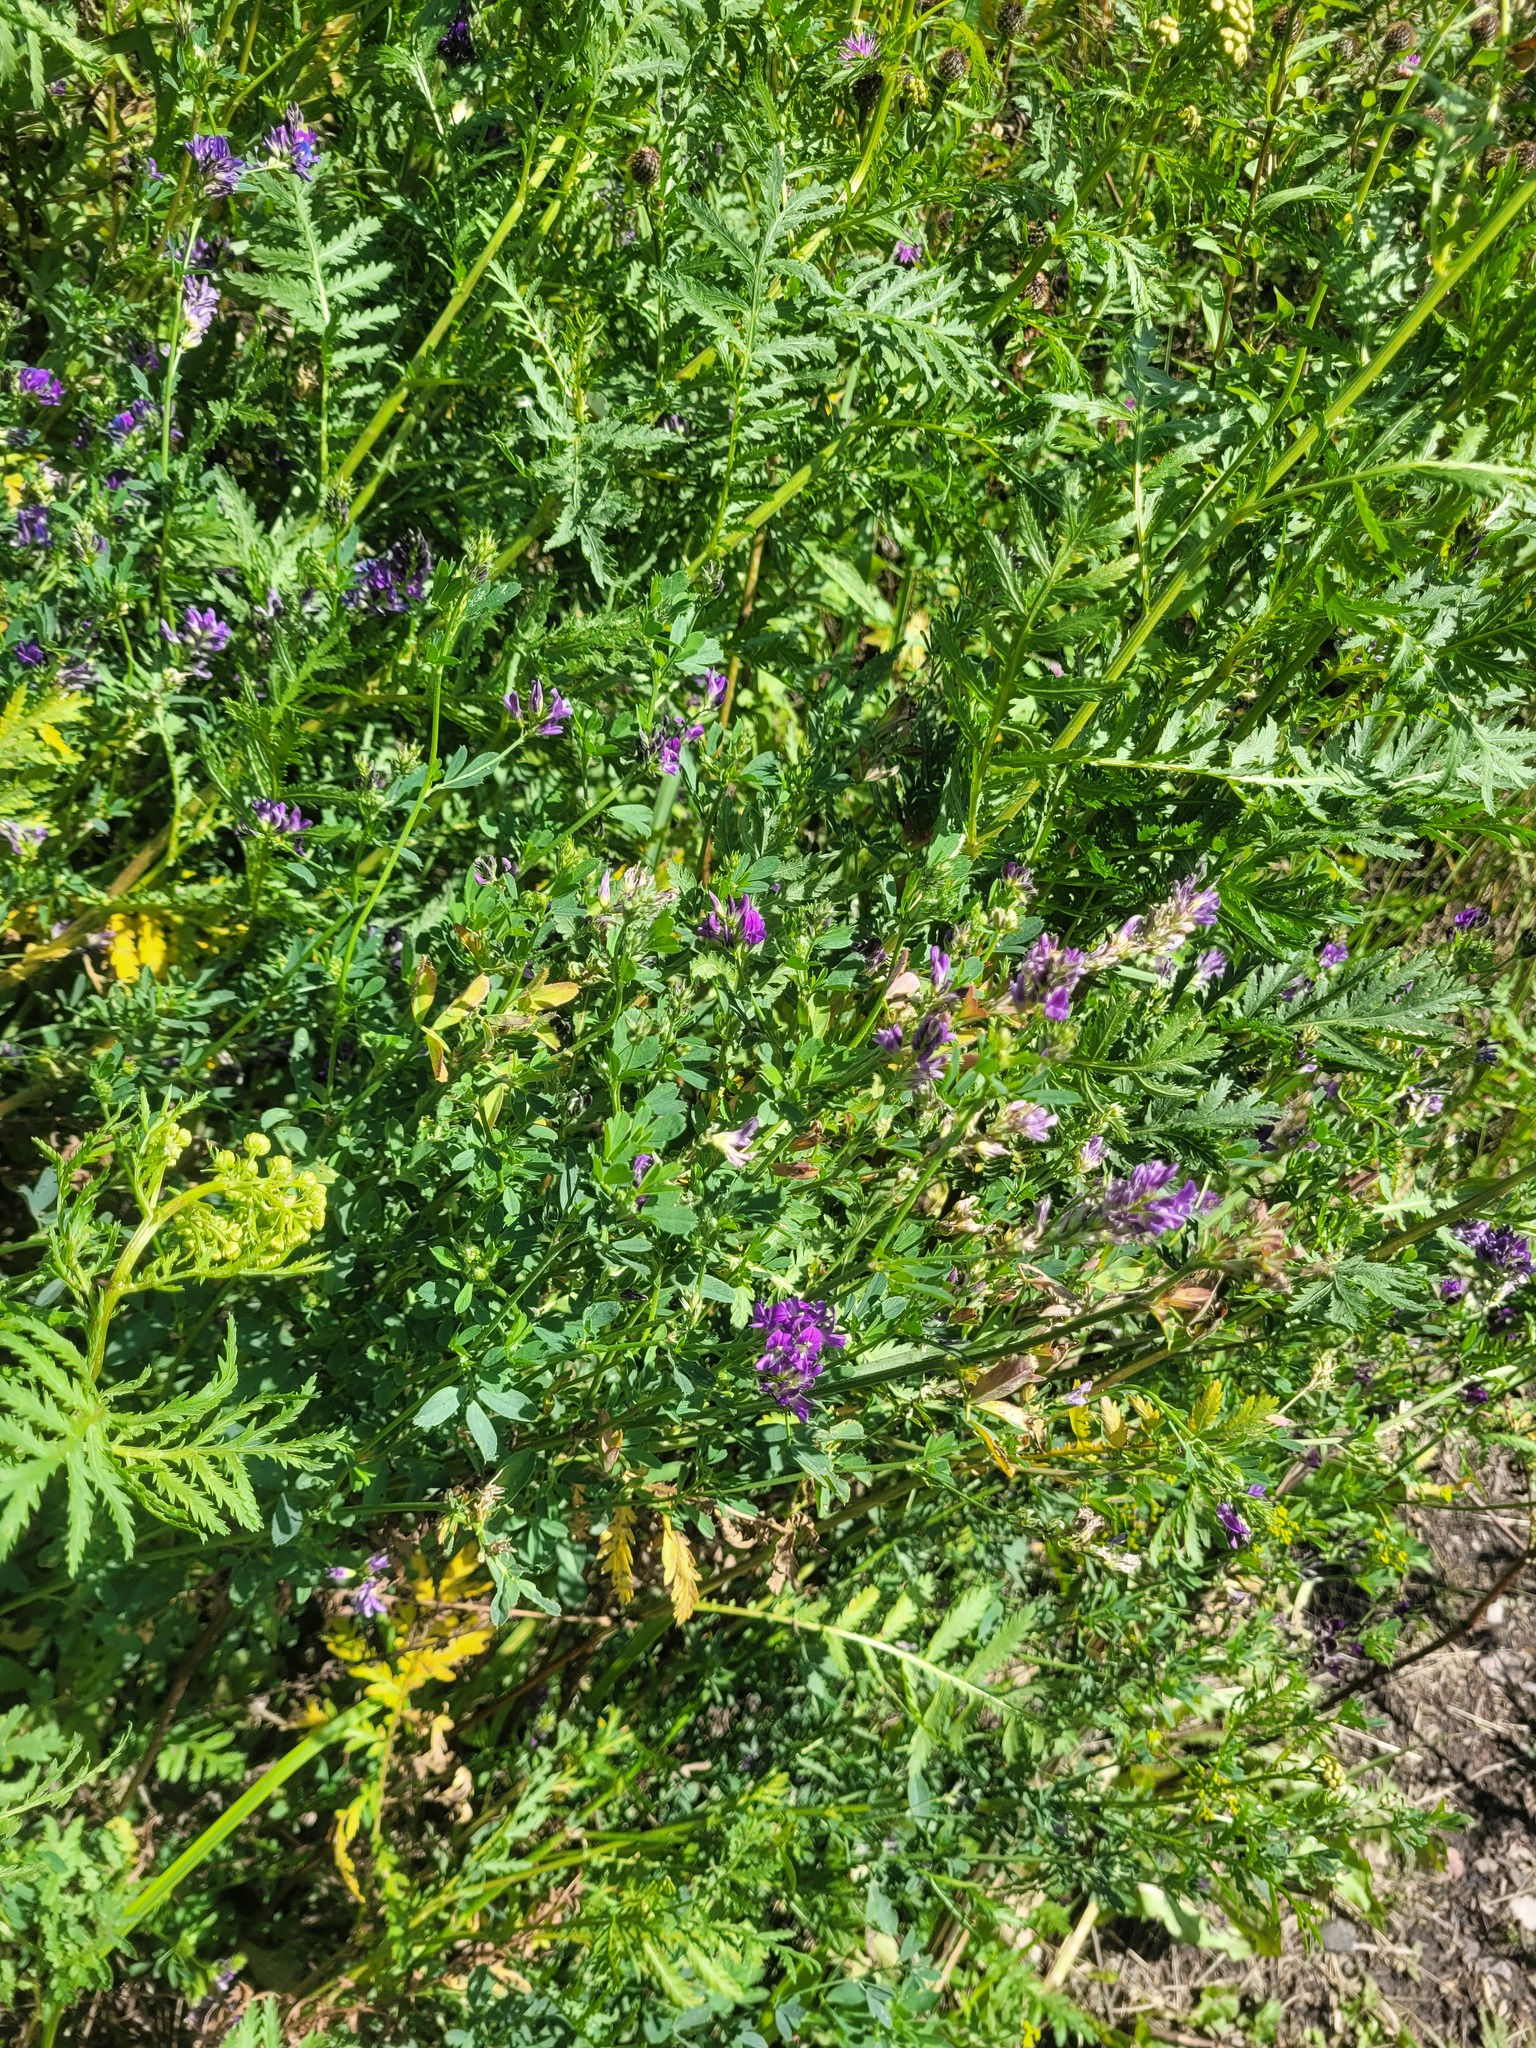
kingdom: Plantae
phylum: Tracheophyta
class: Magnoliopsida
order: Fabales
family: Fabaceae
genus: Medicago
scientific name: Medicago sativa
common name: Alfalfa
